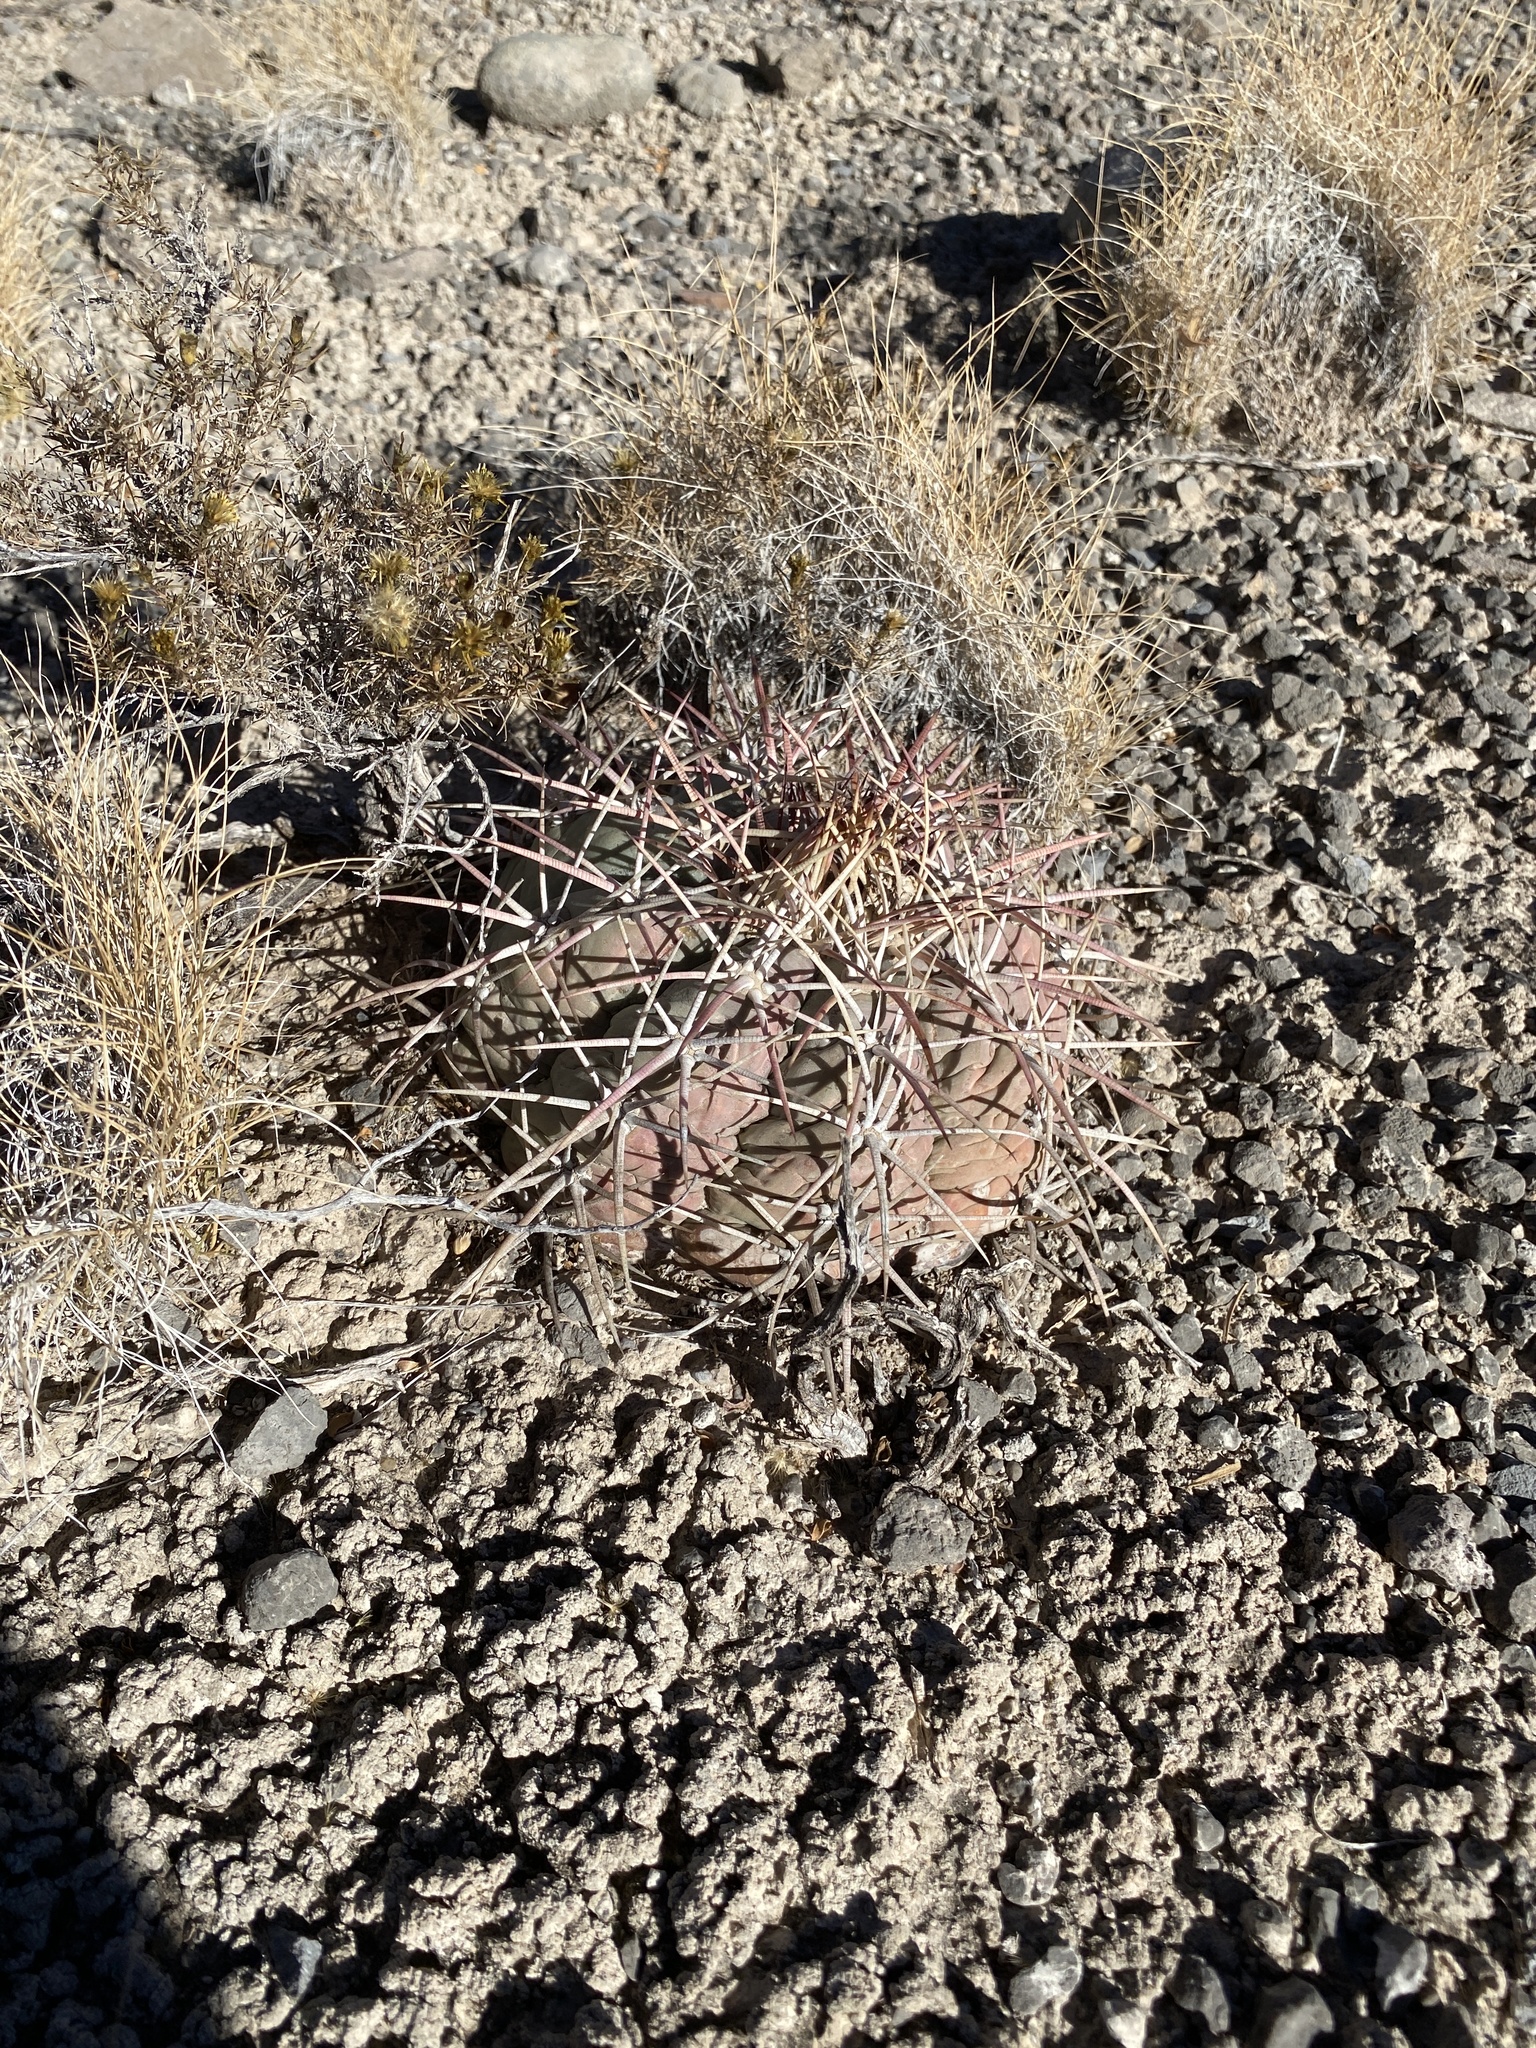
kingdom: Plantae
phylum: Tracheophyta
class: Magnoliopsida
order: Caryophyllales
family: Cactaceae
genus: Echinocactus
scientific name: Echinocactus horizonthalonius
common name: Devilshead
